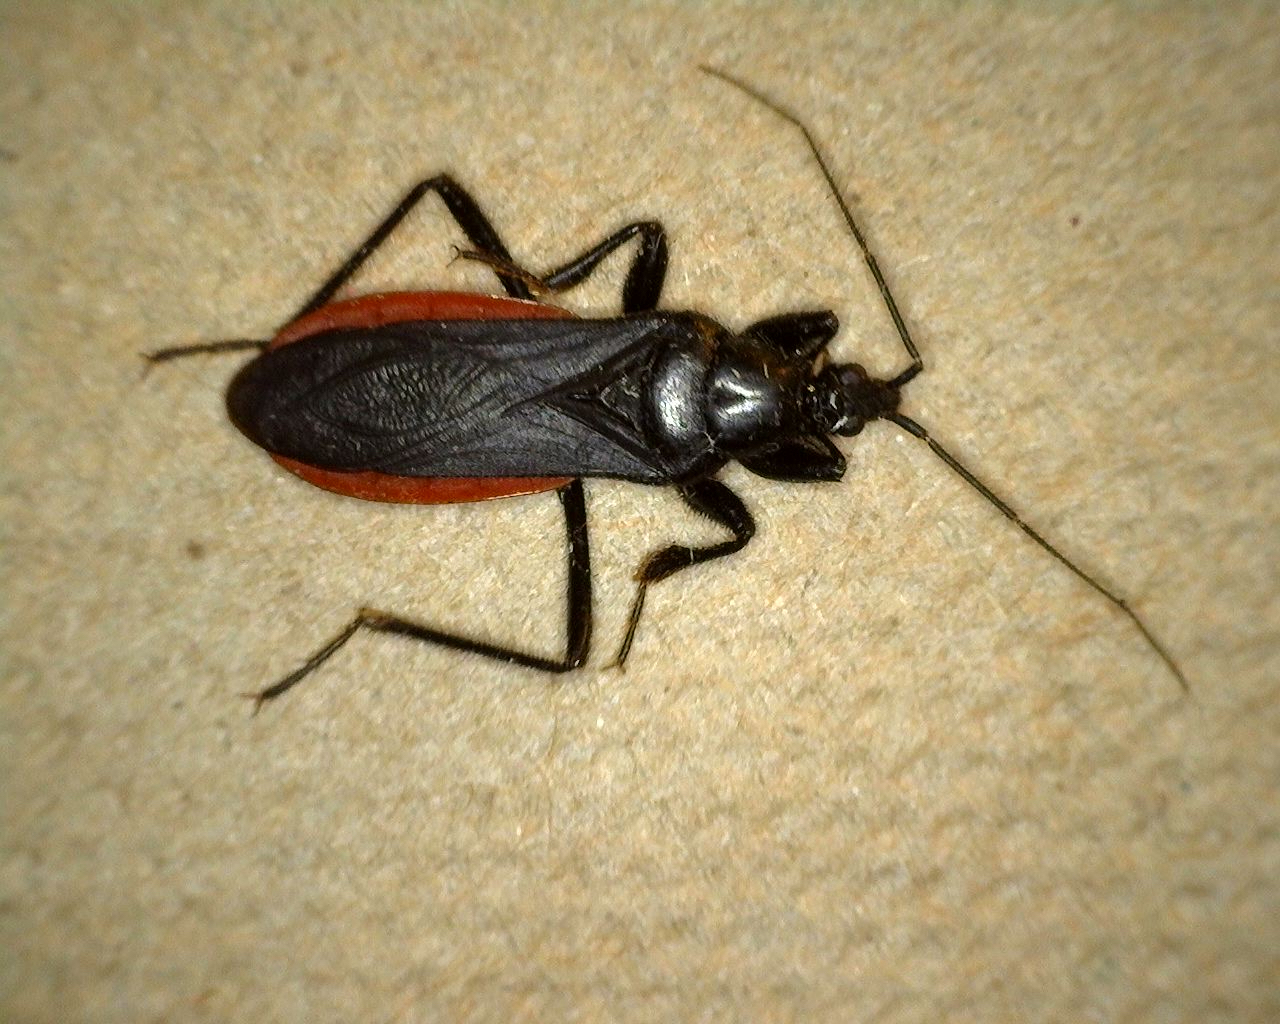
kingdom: Animalia
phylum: Arthropoda
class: Insecta
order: Hemiptera
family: Reduviidae
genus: Melanolestes
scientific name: Melanolestes picipes
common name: Assassin bug
